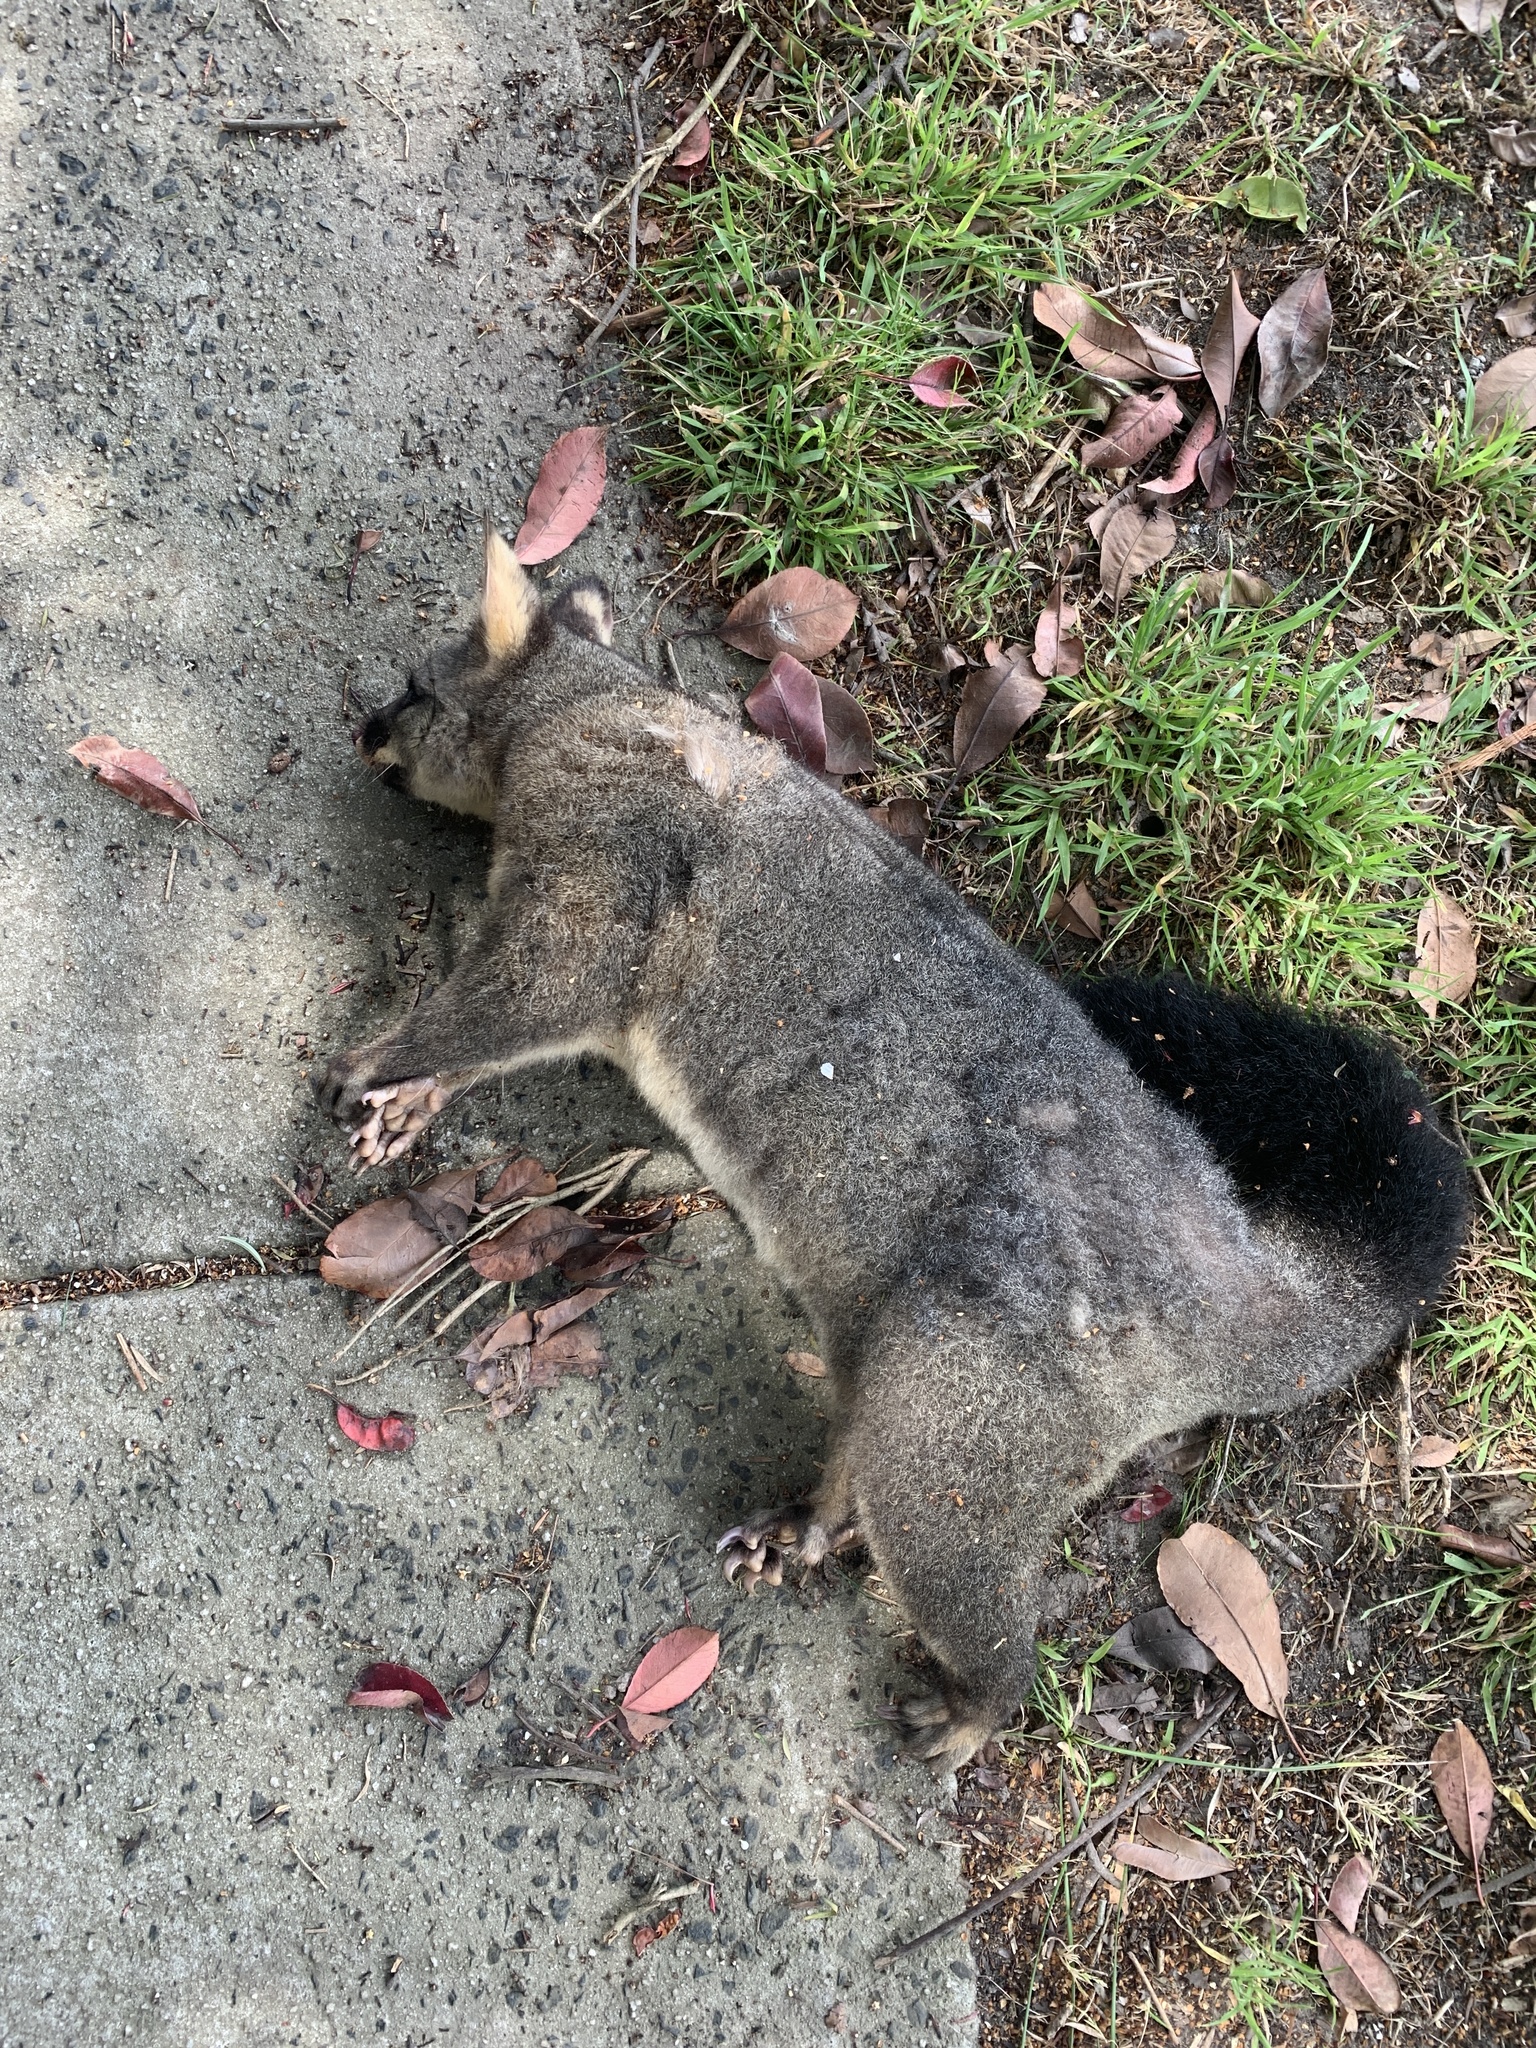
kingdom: Animalia
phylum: Chordata
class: Mammalia
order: Diprotodontia
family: Phalangeridae
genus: Trichosurus
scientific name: Trichosurus vulpecula
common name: Common brushtail
